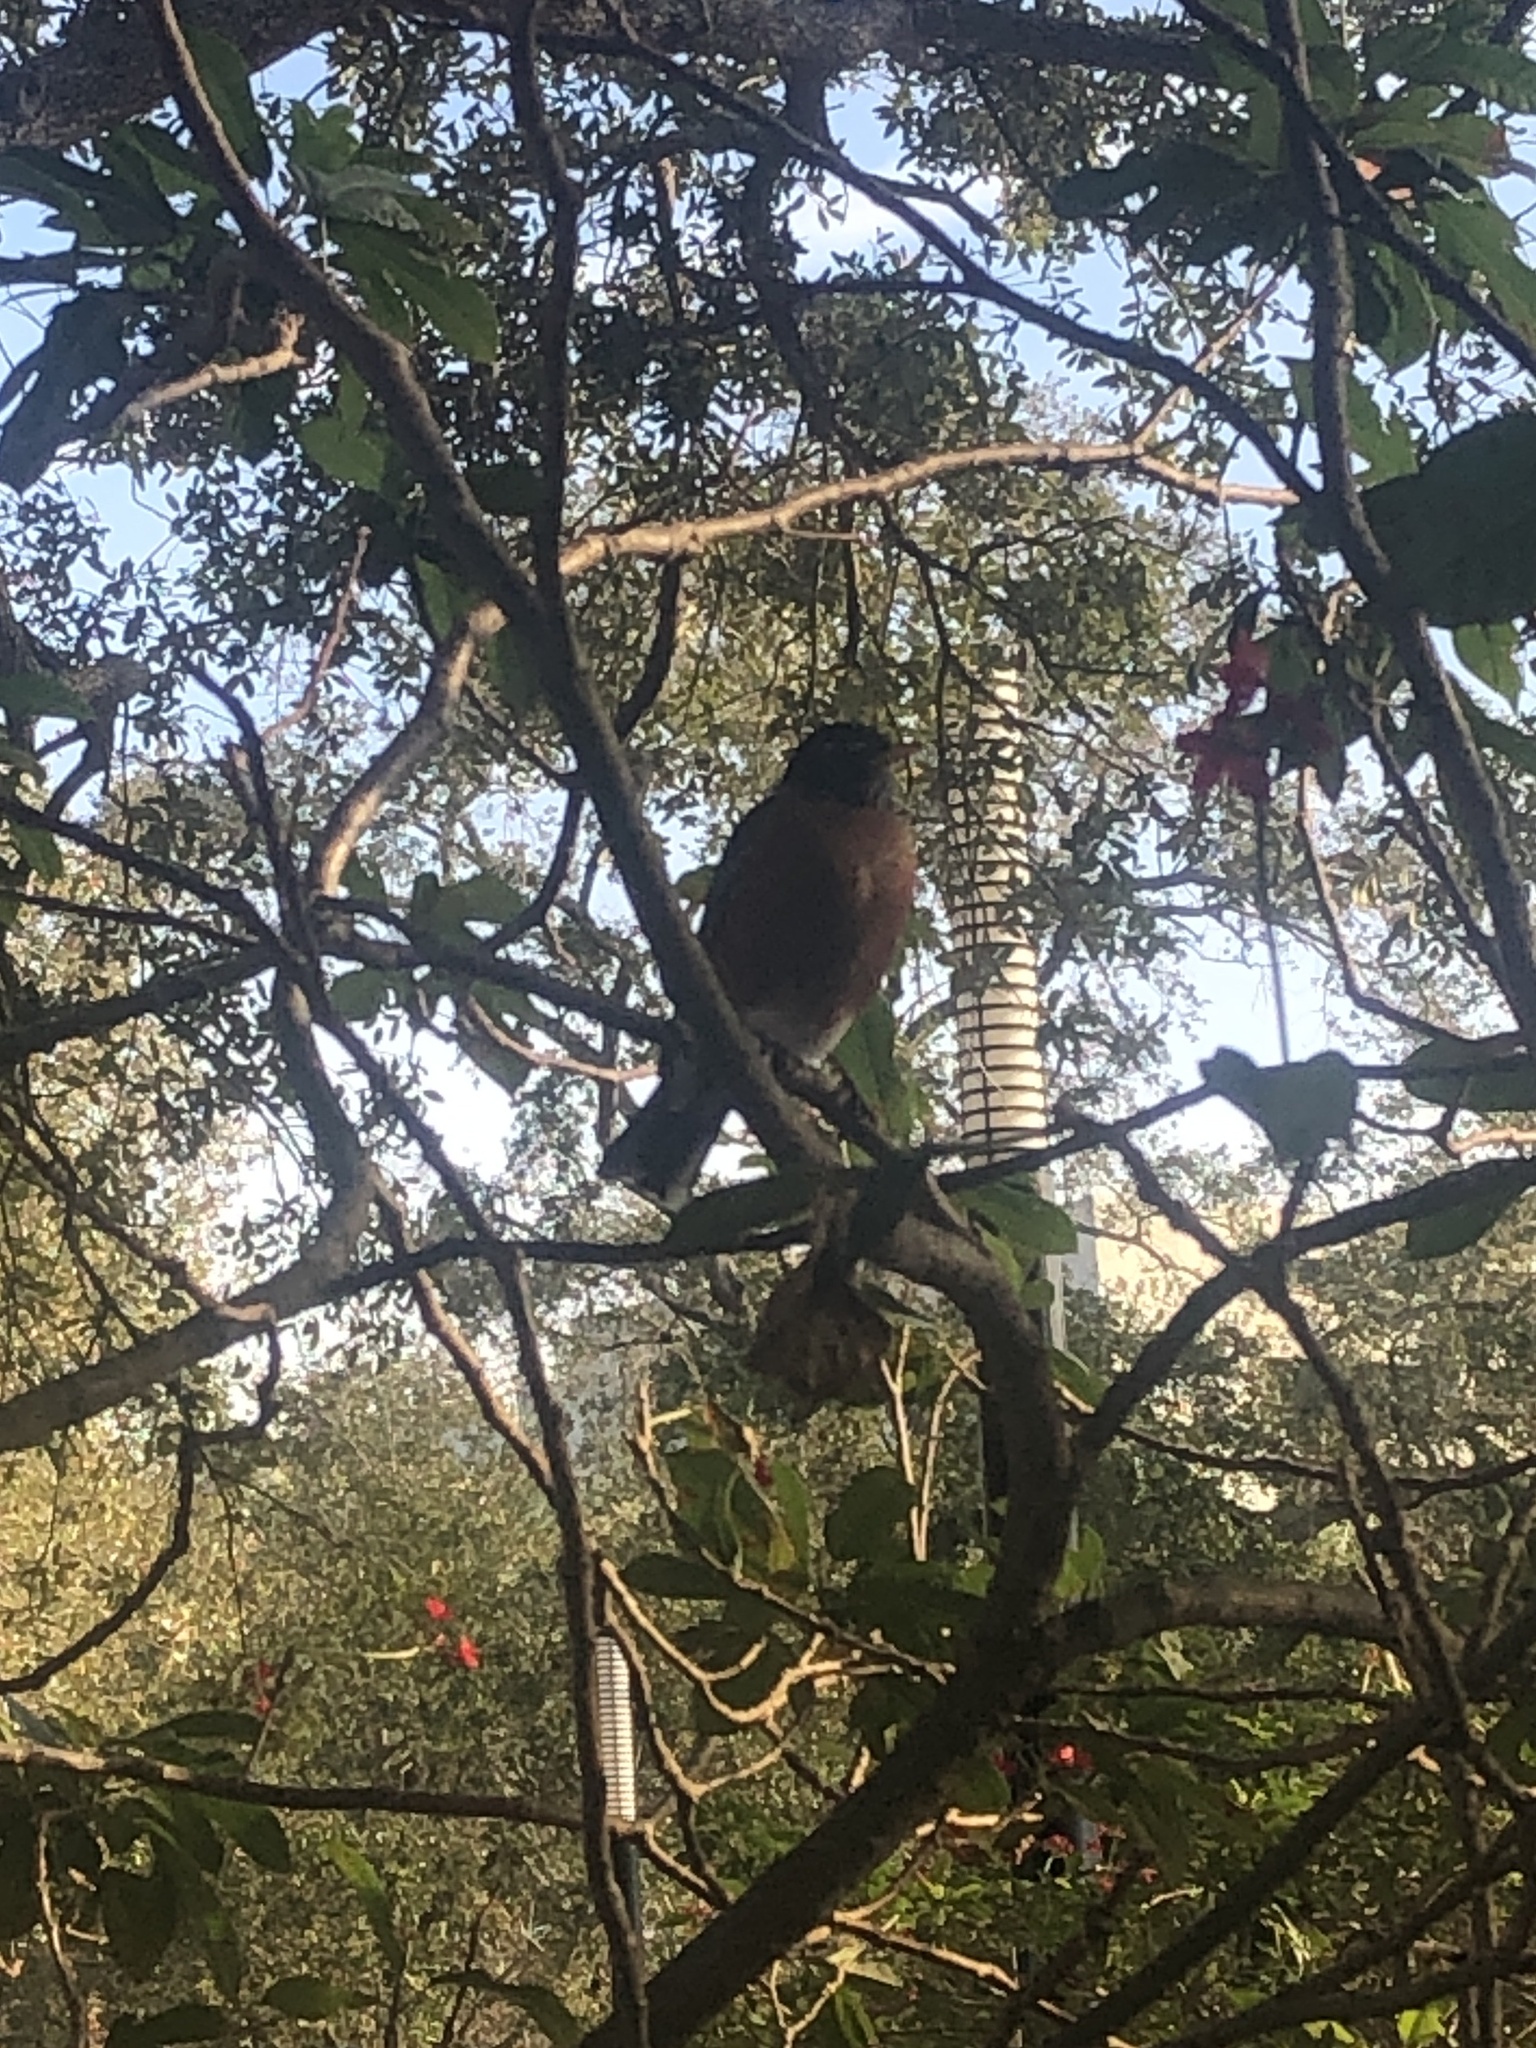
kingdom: Animalia
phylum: Chordata
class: Aves
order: Passeriformes
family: Turdidae
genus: Turdus
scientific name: Turdus migratorius
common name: American robin
